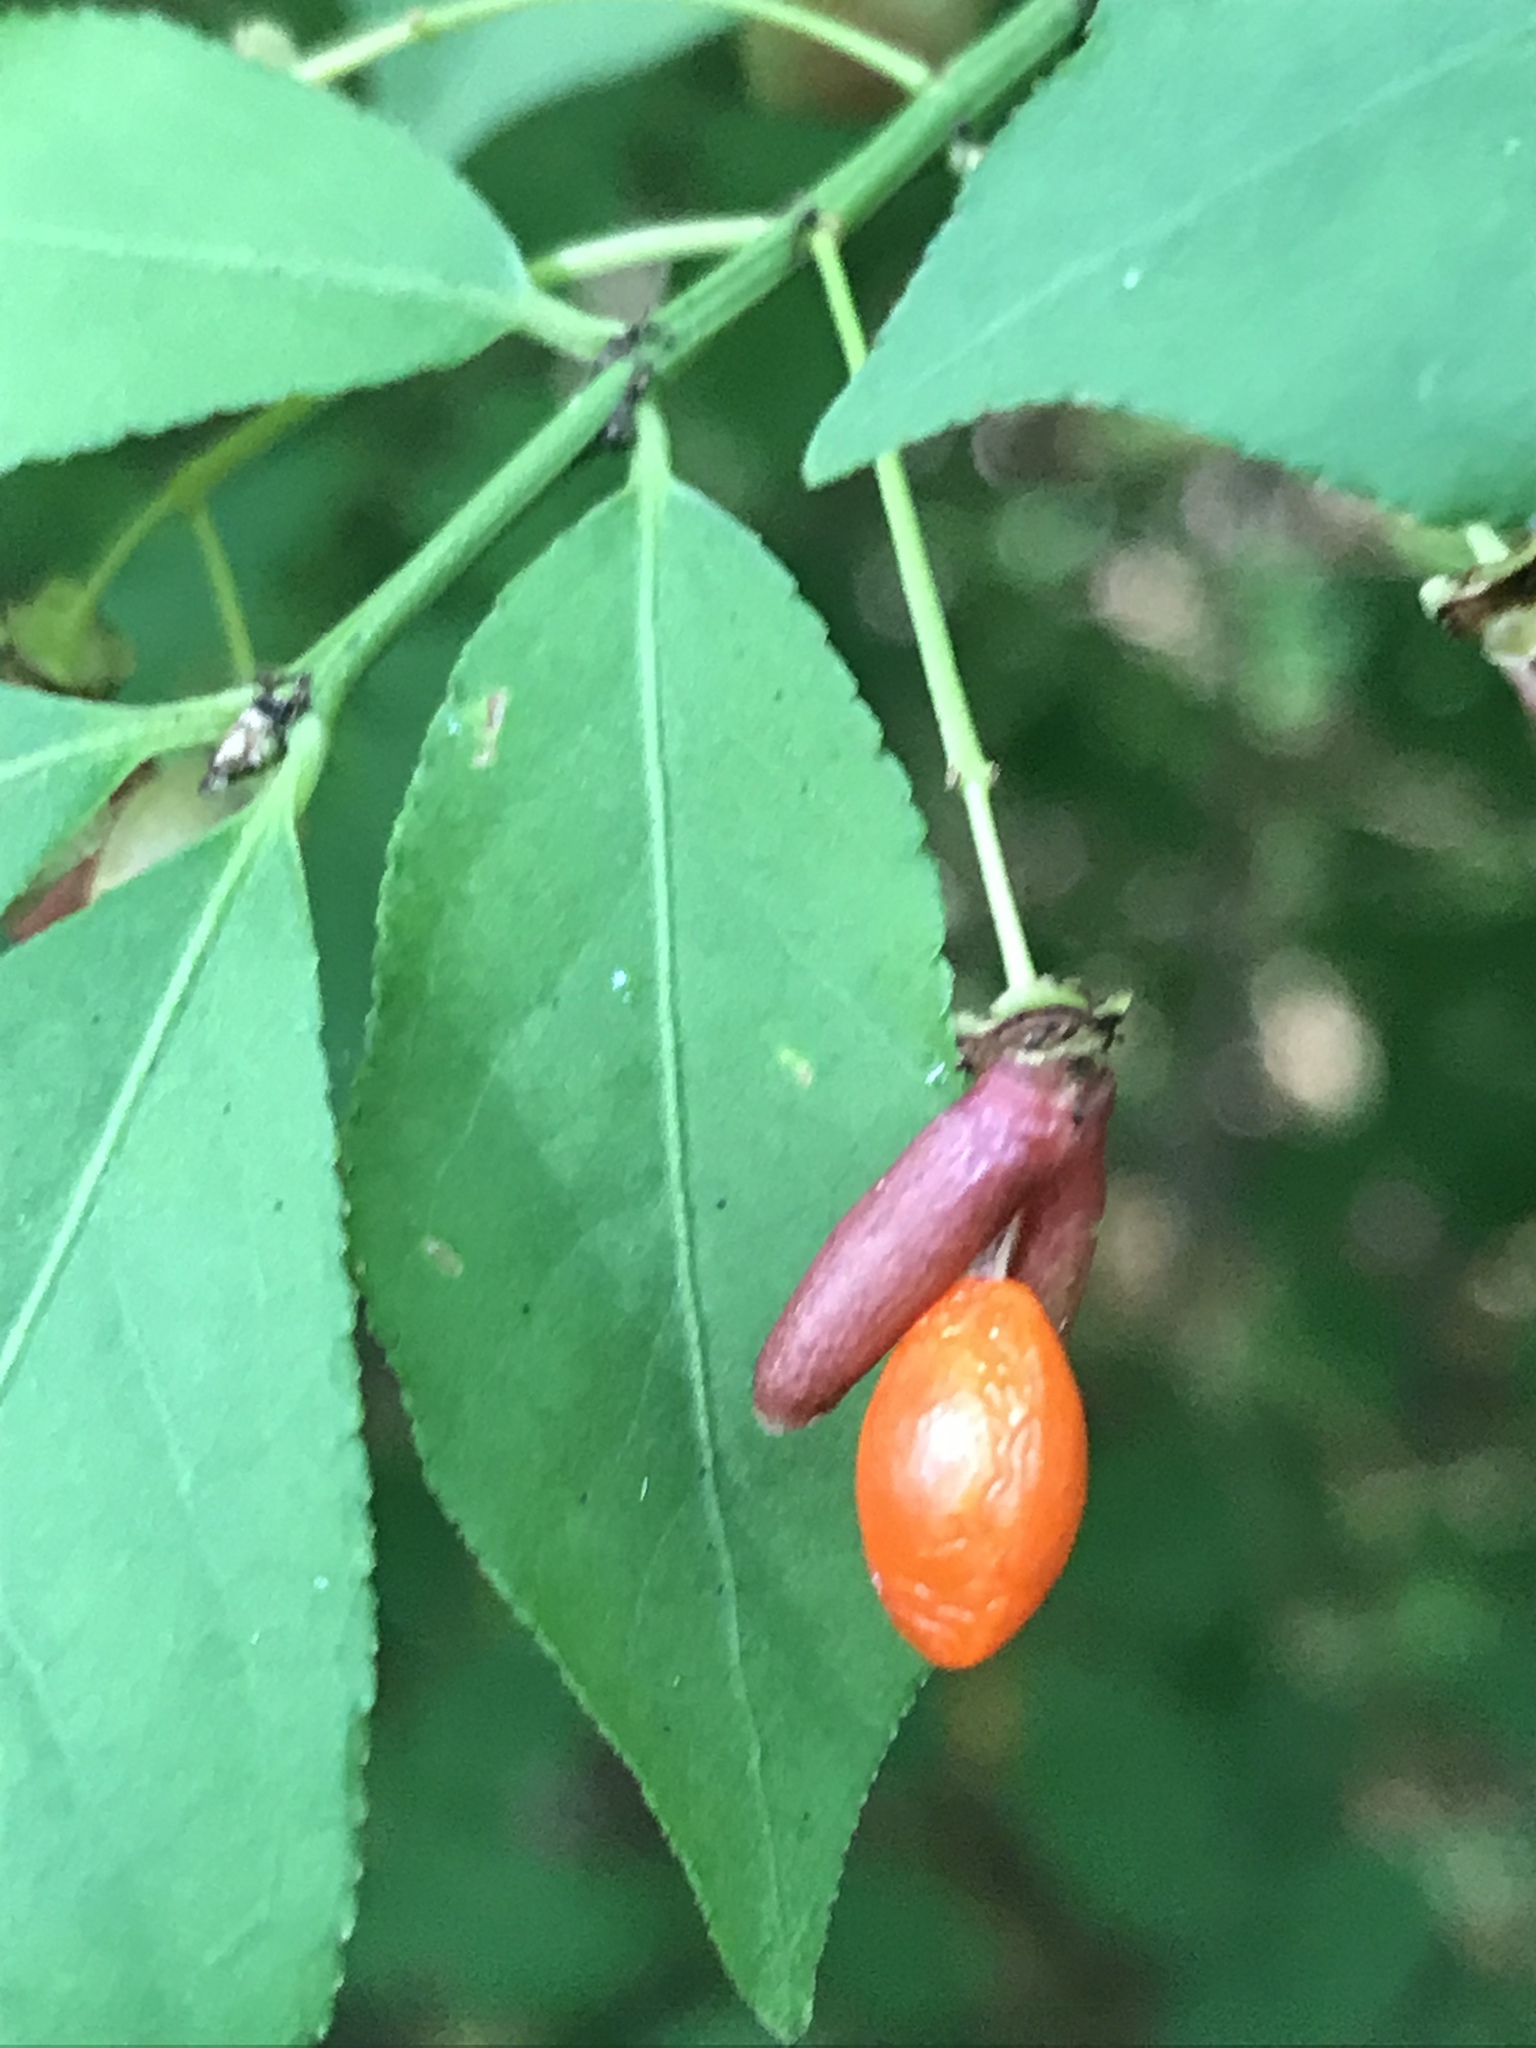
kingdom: Plantae
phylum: Tracheophyta
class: Magnoliopsida
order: Celastrales
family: Celastraceae
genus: Euonymus
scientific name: Euonymus alatus
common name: Winged euonymus
